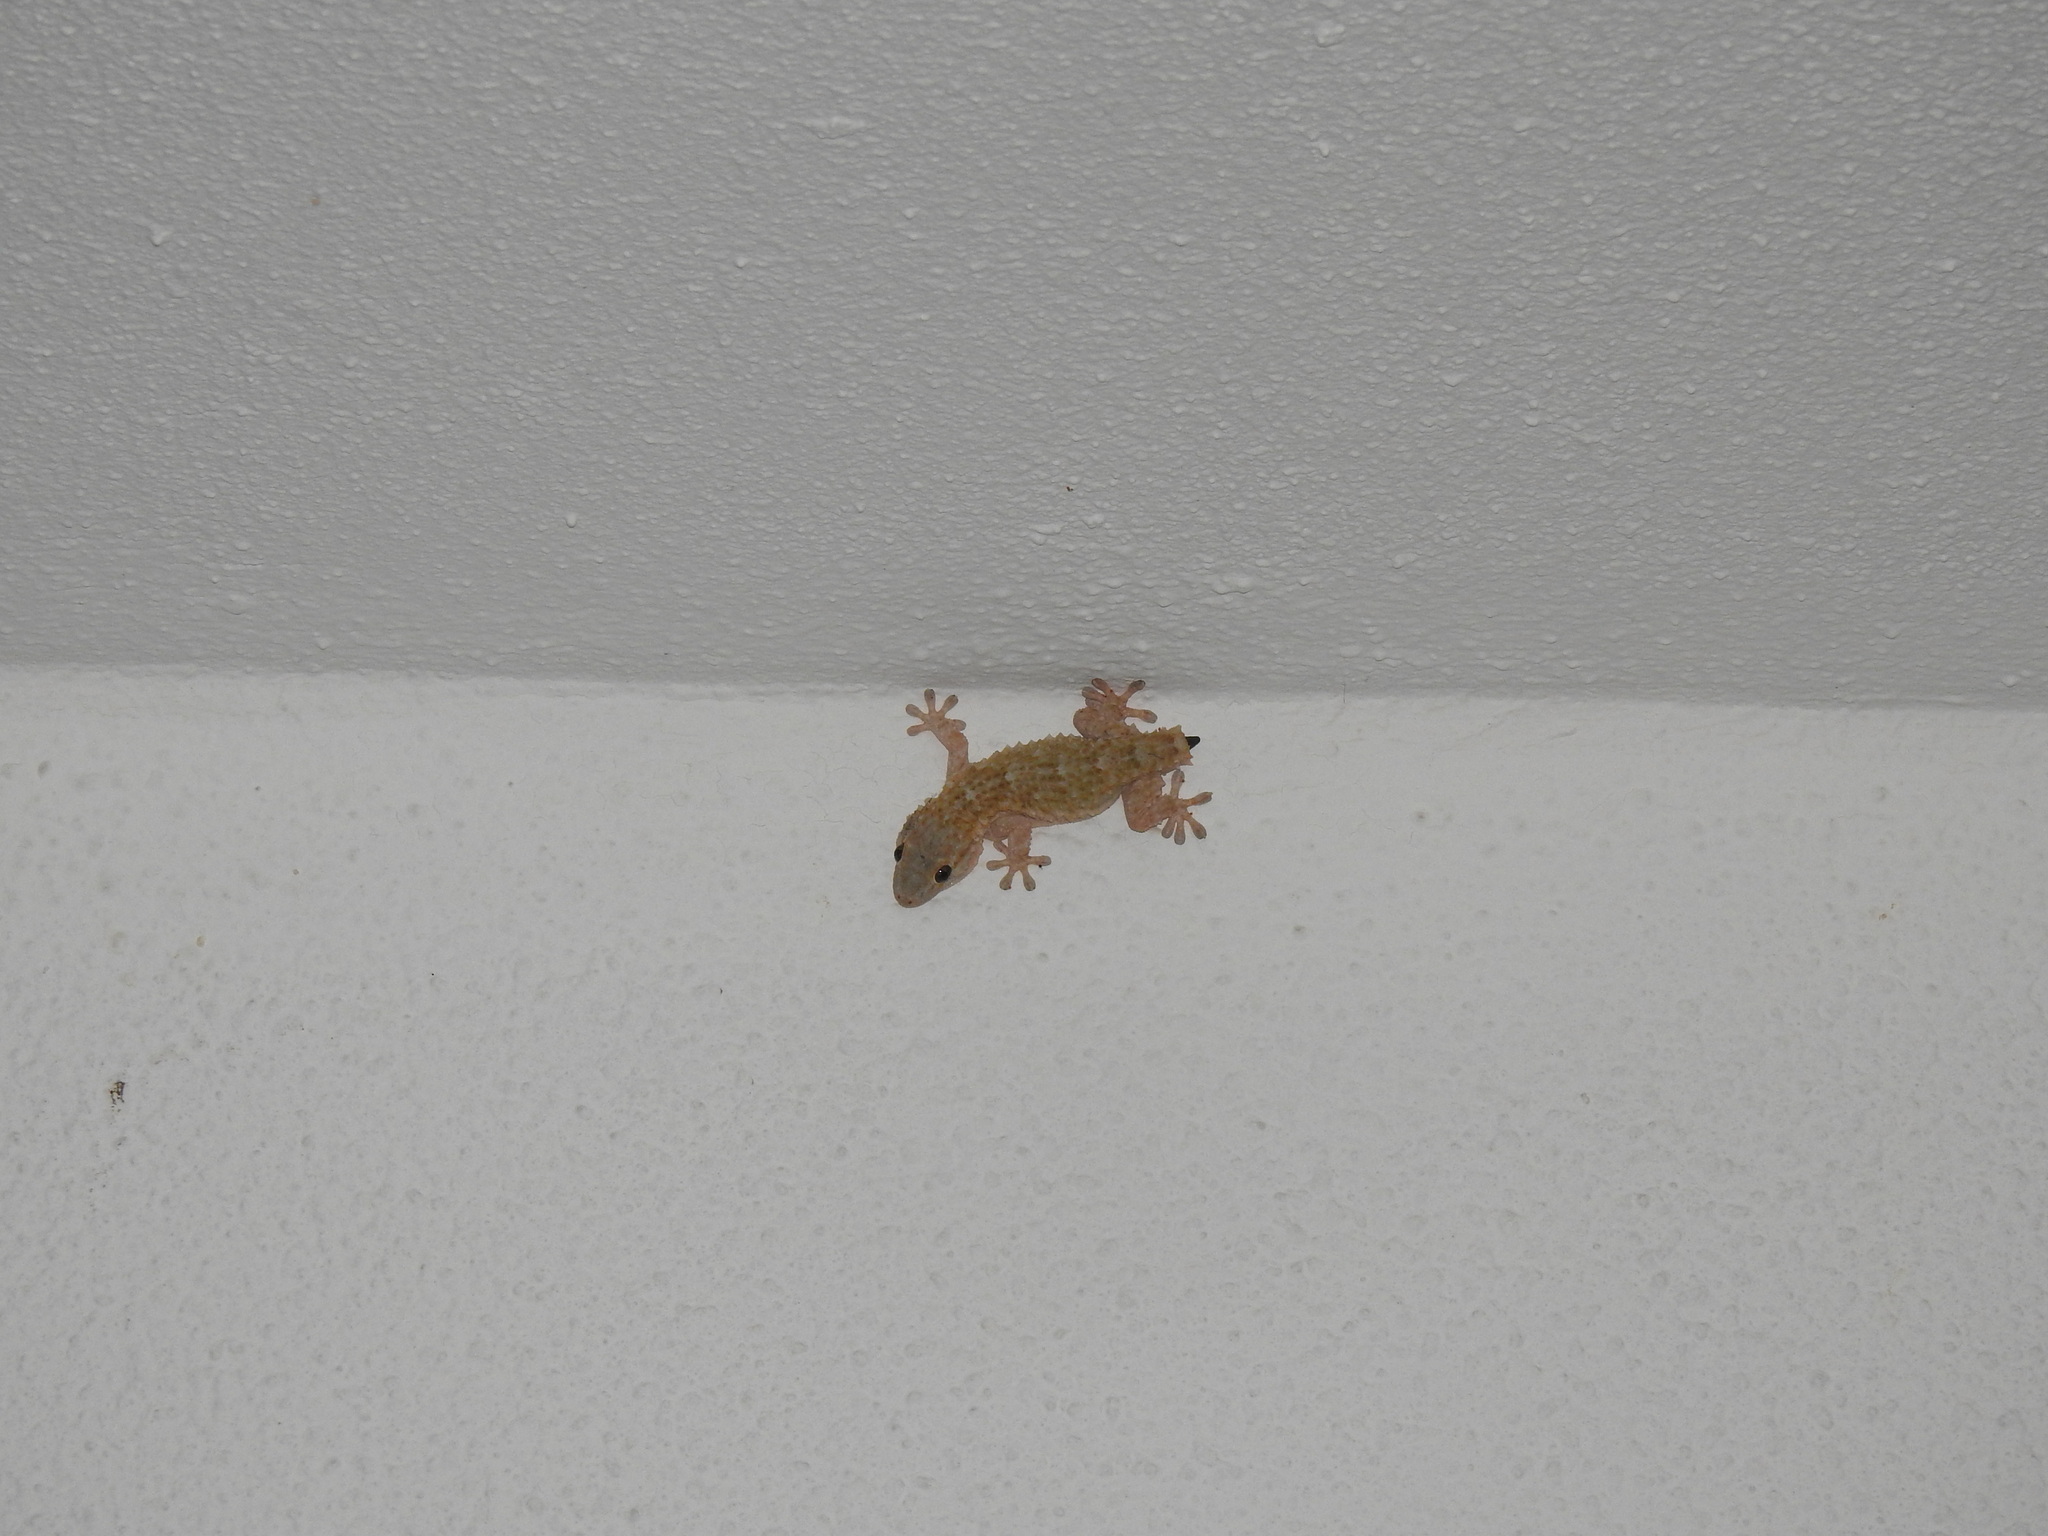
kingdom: Animalia
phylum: Chordata
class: Squamata
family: Phyllodactylidae
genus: Tarentola
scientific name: Tarentola mauritanica
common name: Moorish gecko
